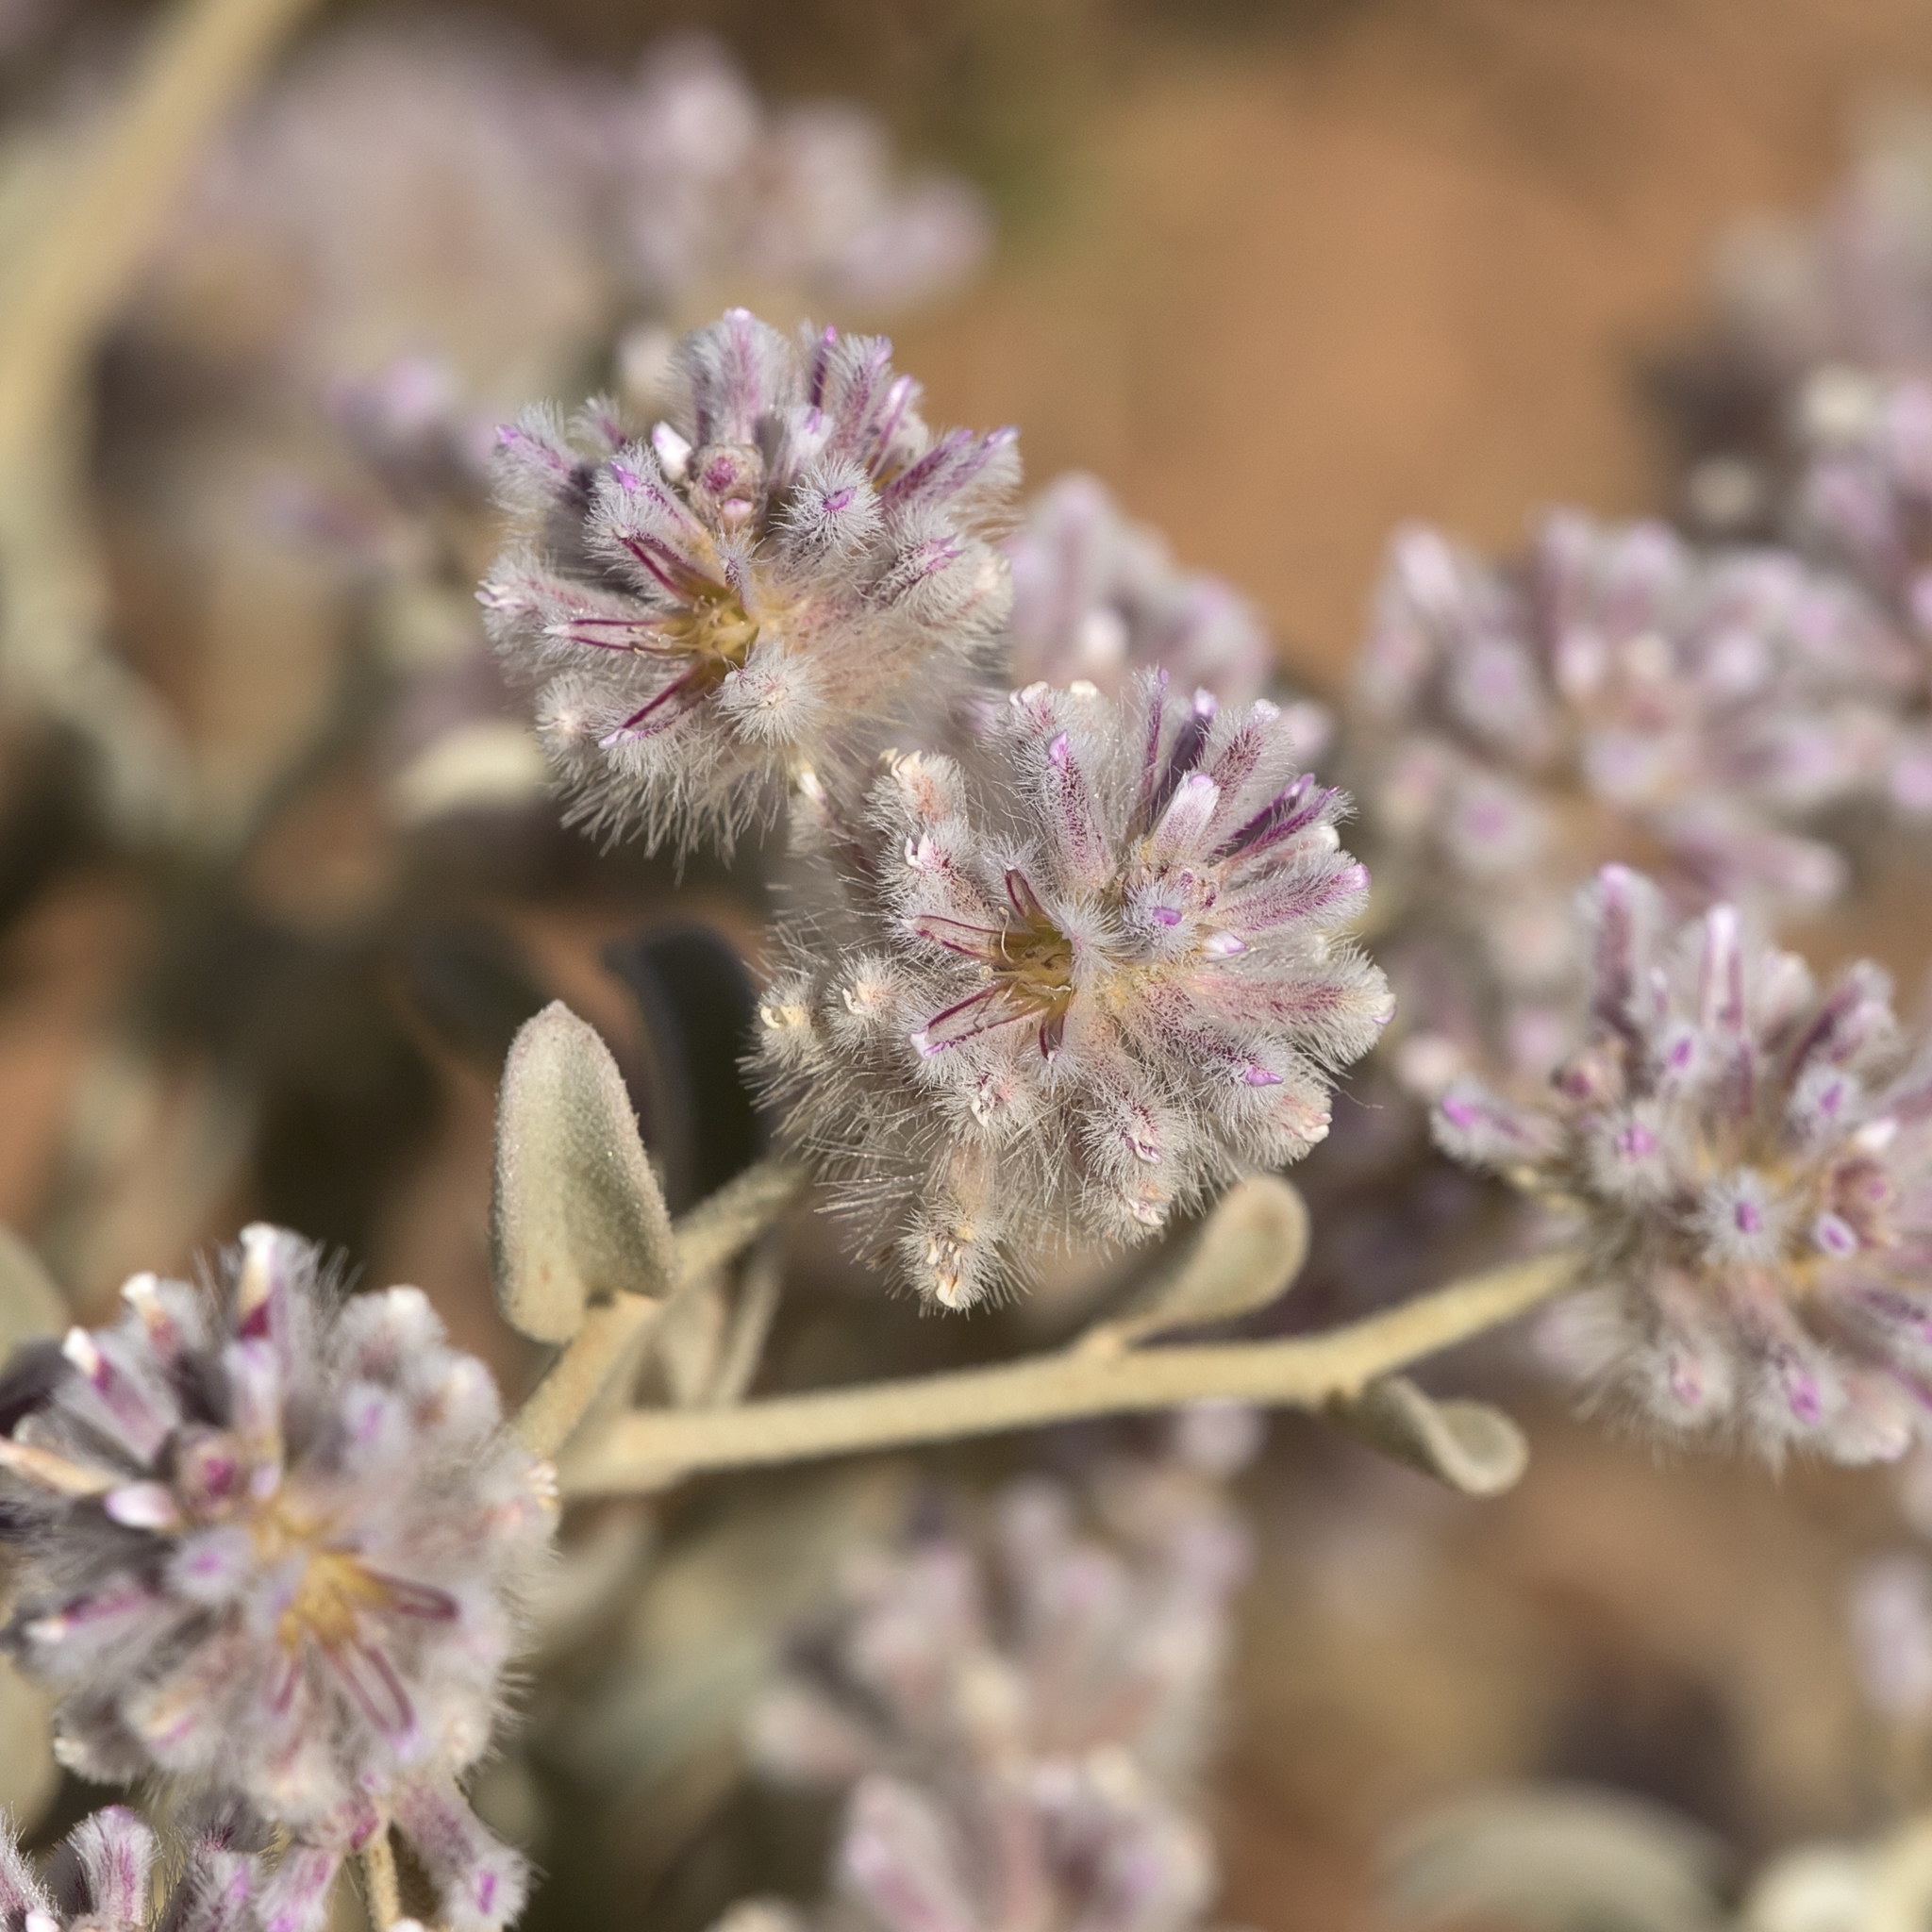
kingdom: Plantae
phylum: Tracheophyta
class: Magnoliopsida
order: Caryophyllales
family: Amaranthaceae
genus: Ptilotus
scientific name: Ptilotus obovatus
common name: Cottonbush
